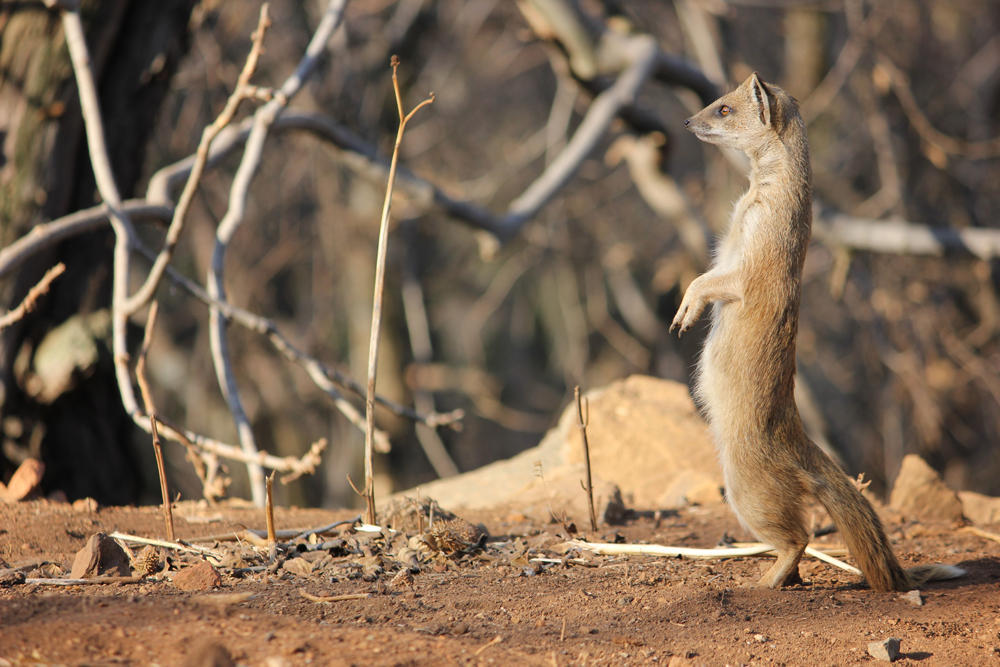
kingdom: Animalia
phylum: Chordata
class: Mammalia
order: Carnivora
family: Herpestidae
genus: Cynictis
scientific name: Cynictis penicillata
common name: Yellow mongoose
